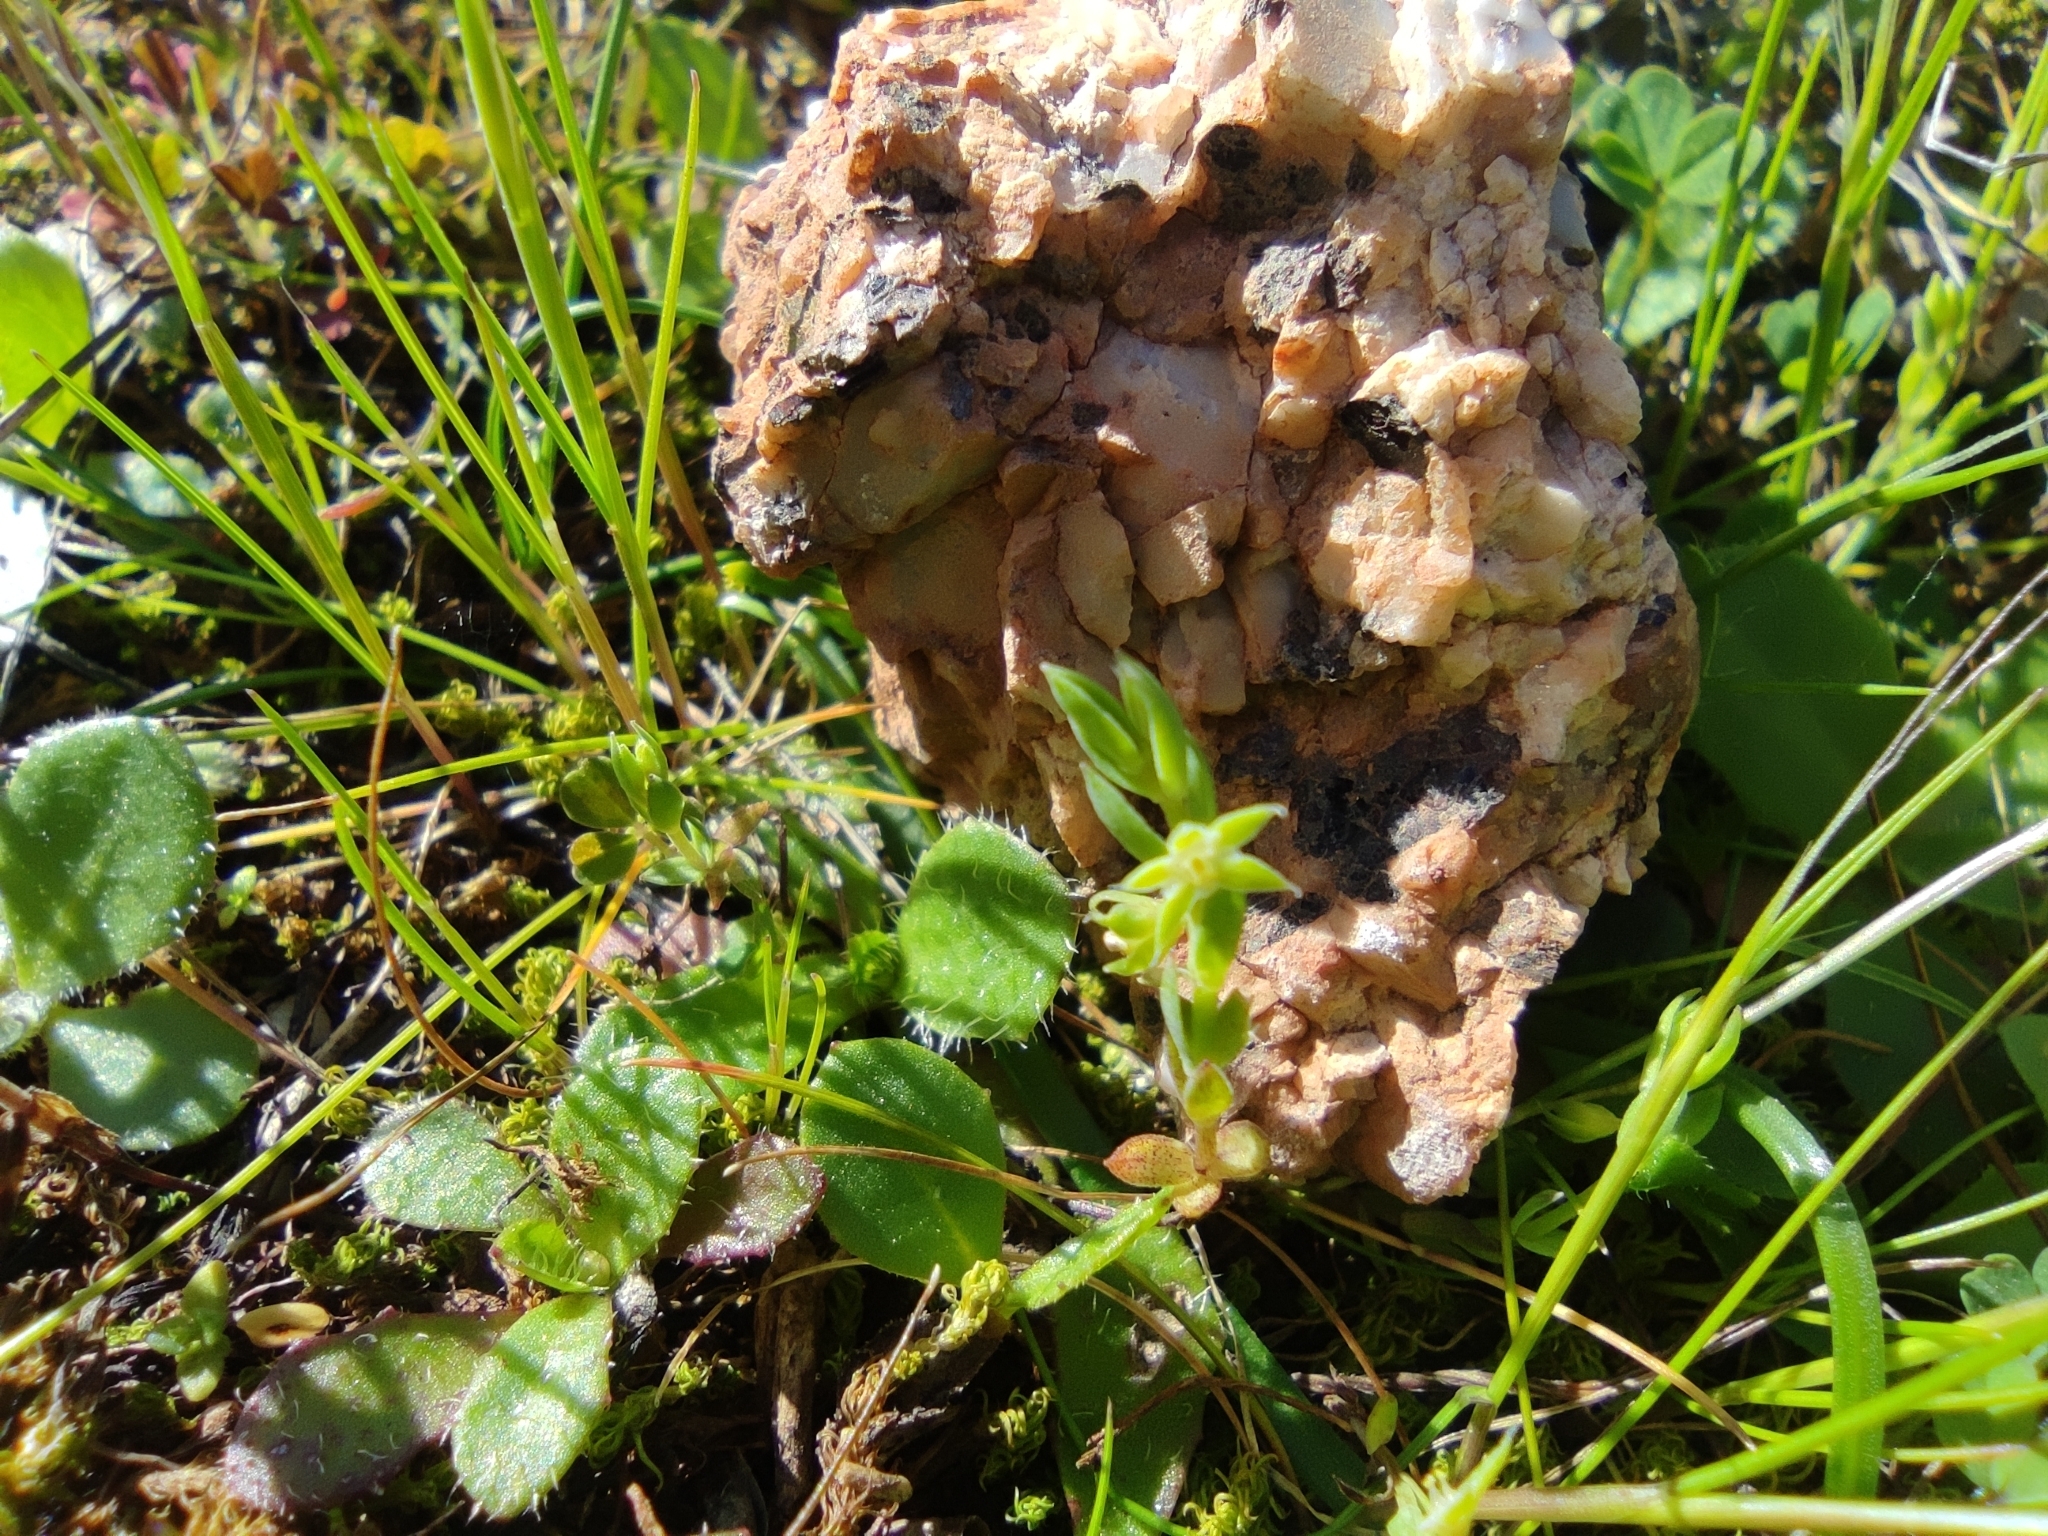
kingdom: Plantae
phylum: Tracheophyta
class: Magnoliopsida
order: Ericales
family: Primulaceae
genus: Lysimachia
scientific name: Lysimachia linum-stellatum
